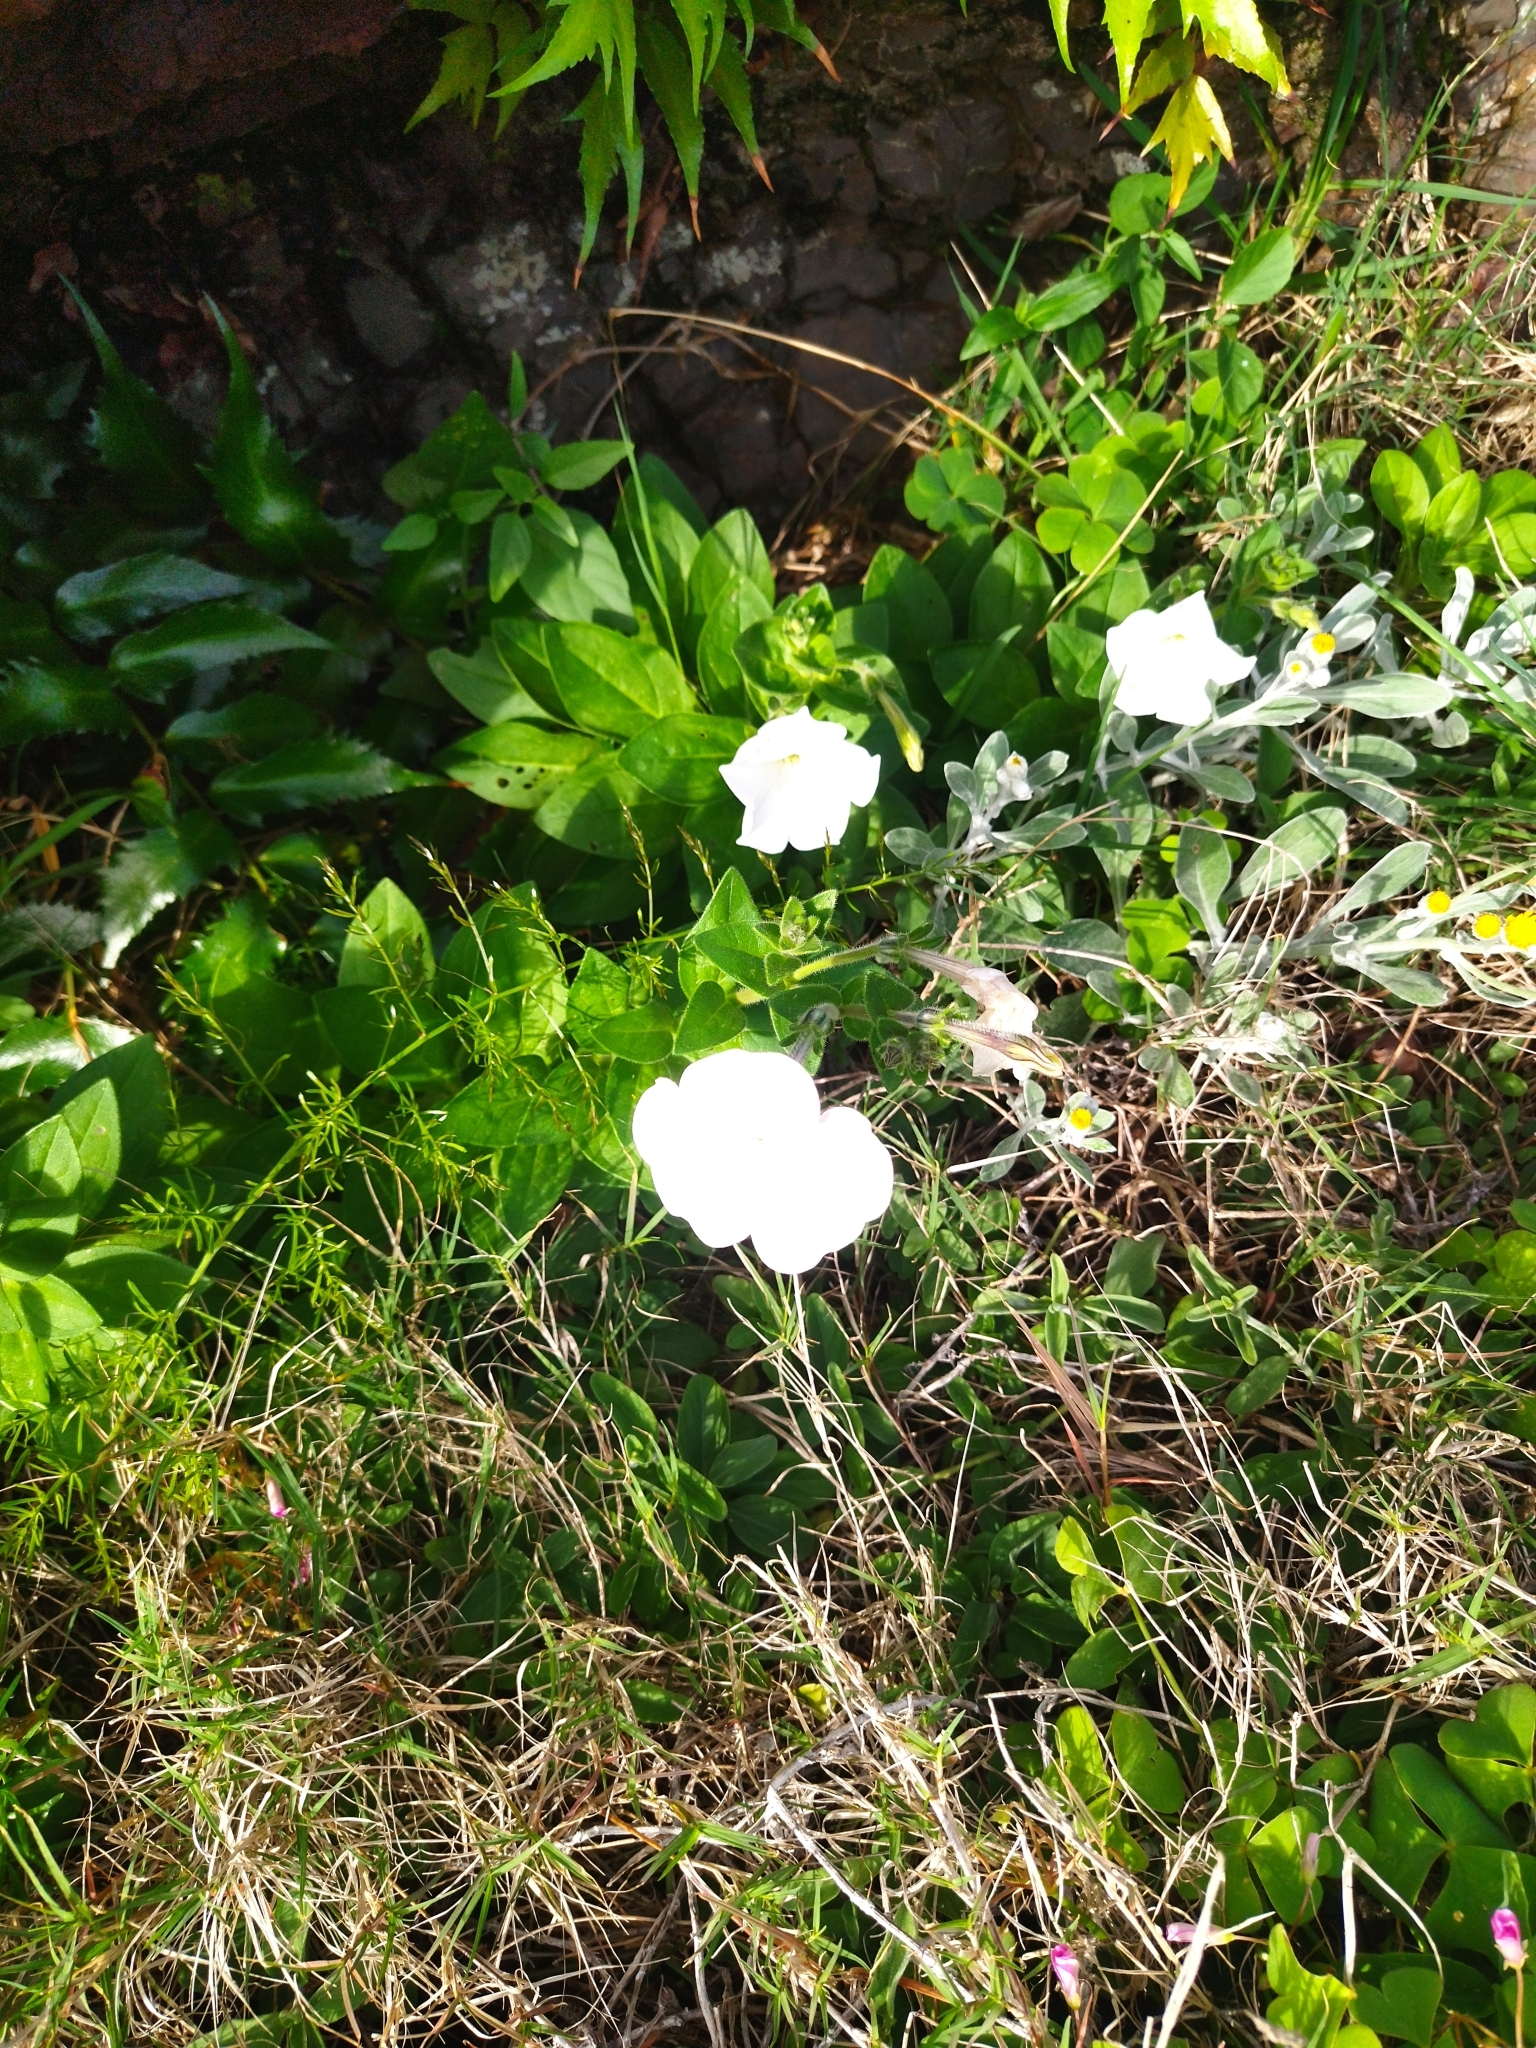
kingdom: Plantae
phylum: Tracheophyta
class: Magnoliopsida
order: Solanales
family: Solanaceae
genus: Petunia
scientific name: Petunia axillaris
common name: Large white petunia
